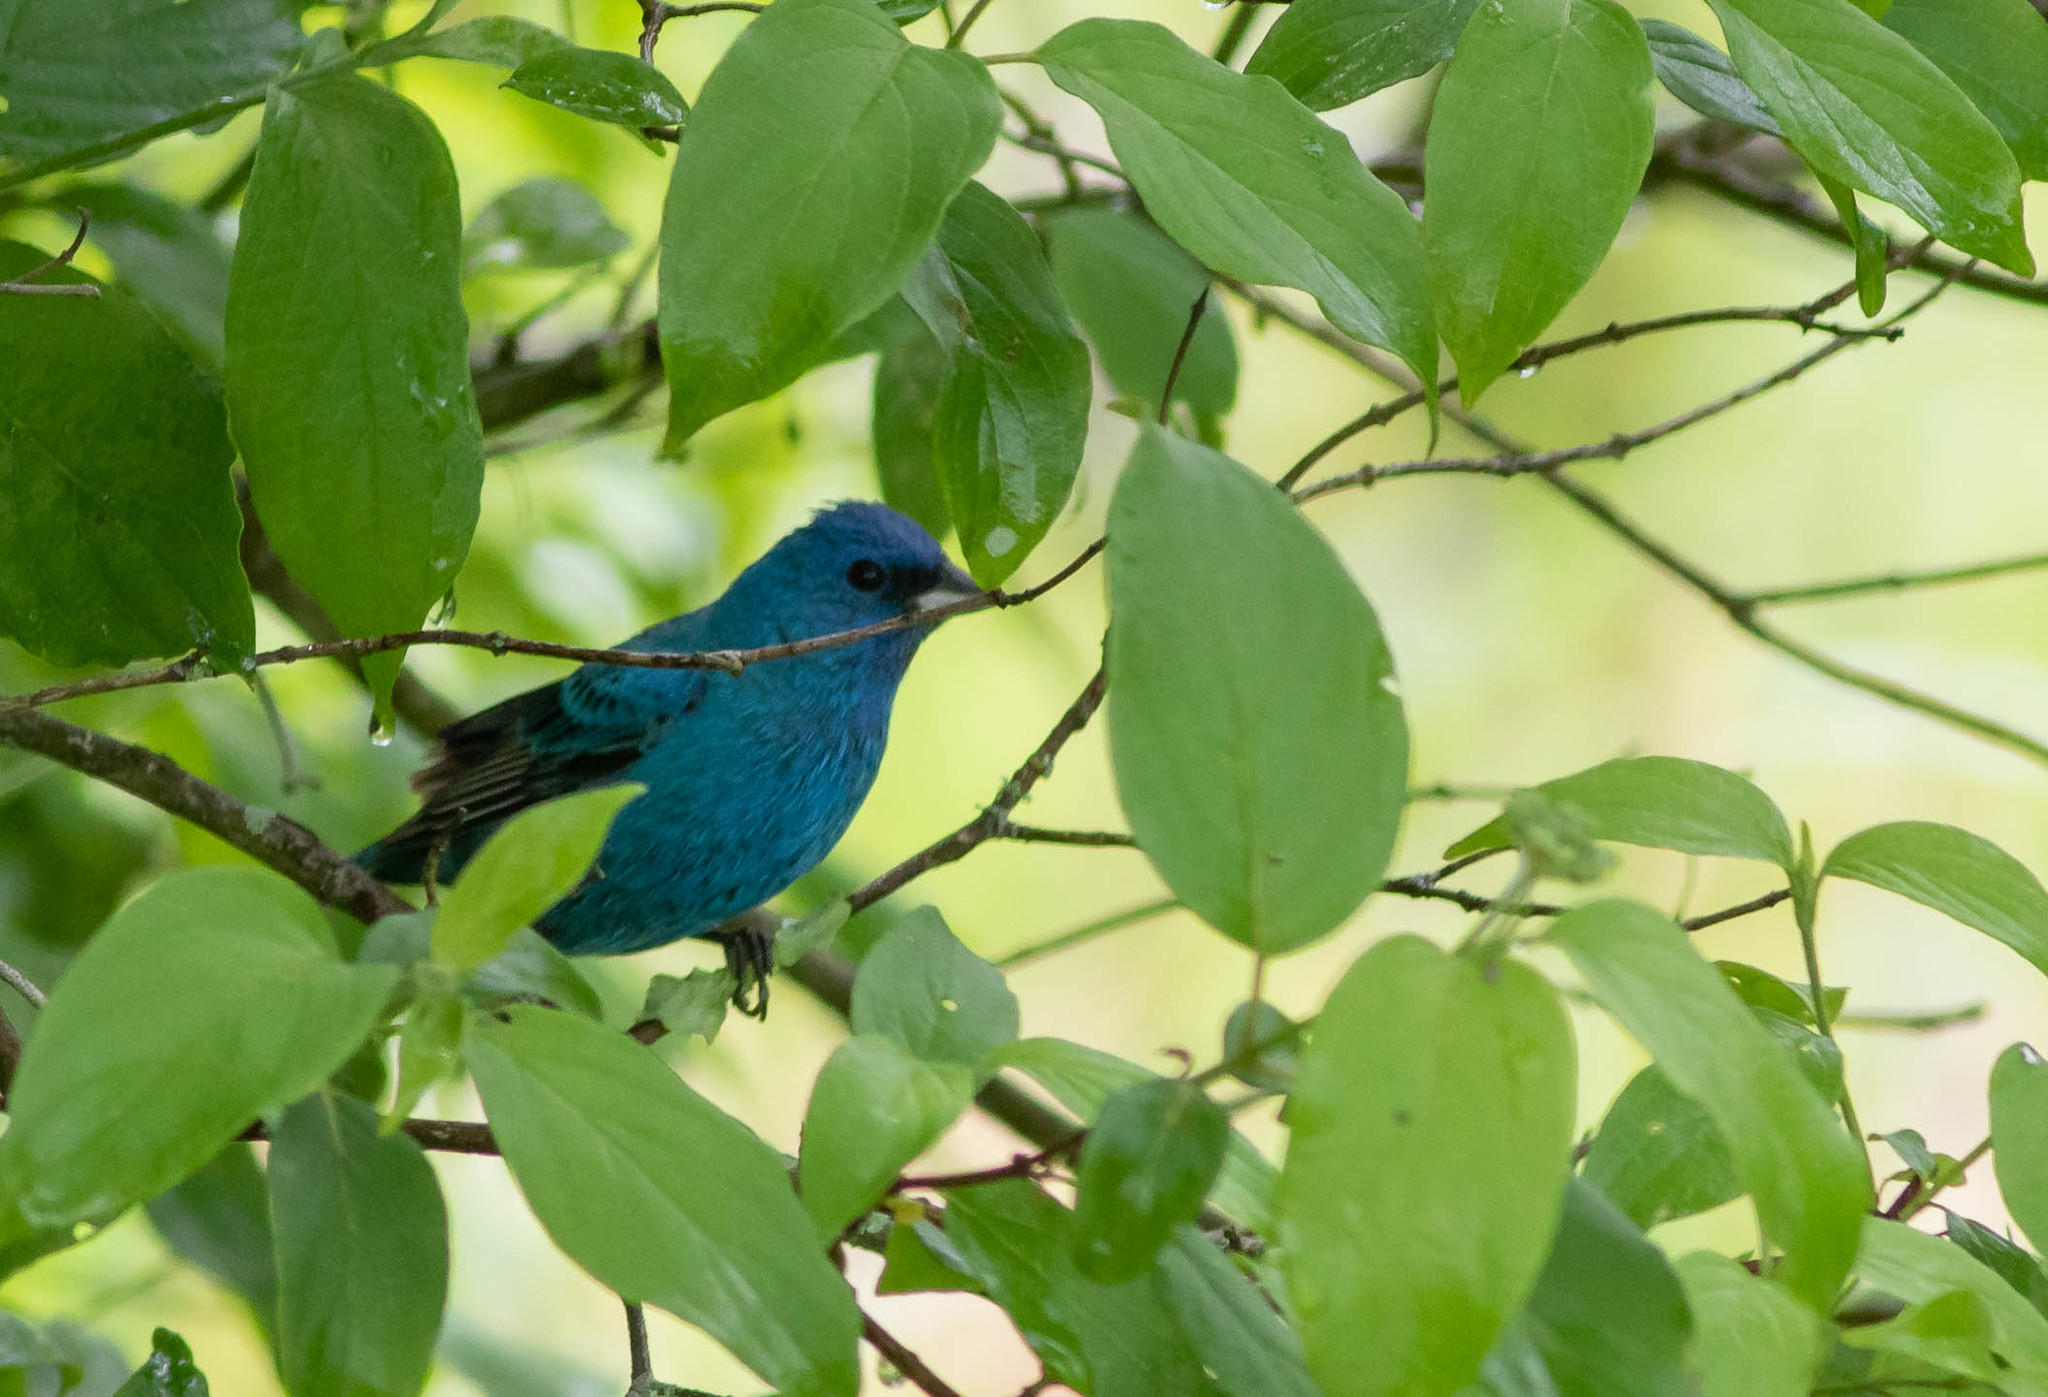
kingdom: Animalia
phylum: Chordata
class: Aves
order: Passeriformes
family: Cardinalidae
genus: Passerina
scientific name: Passerina cyanea
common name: Indigo bunting
